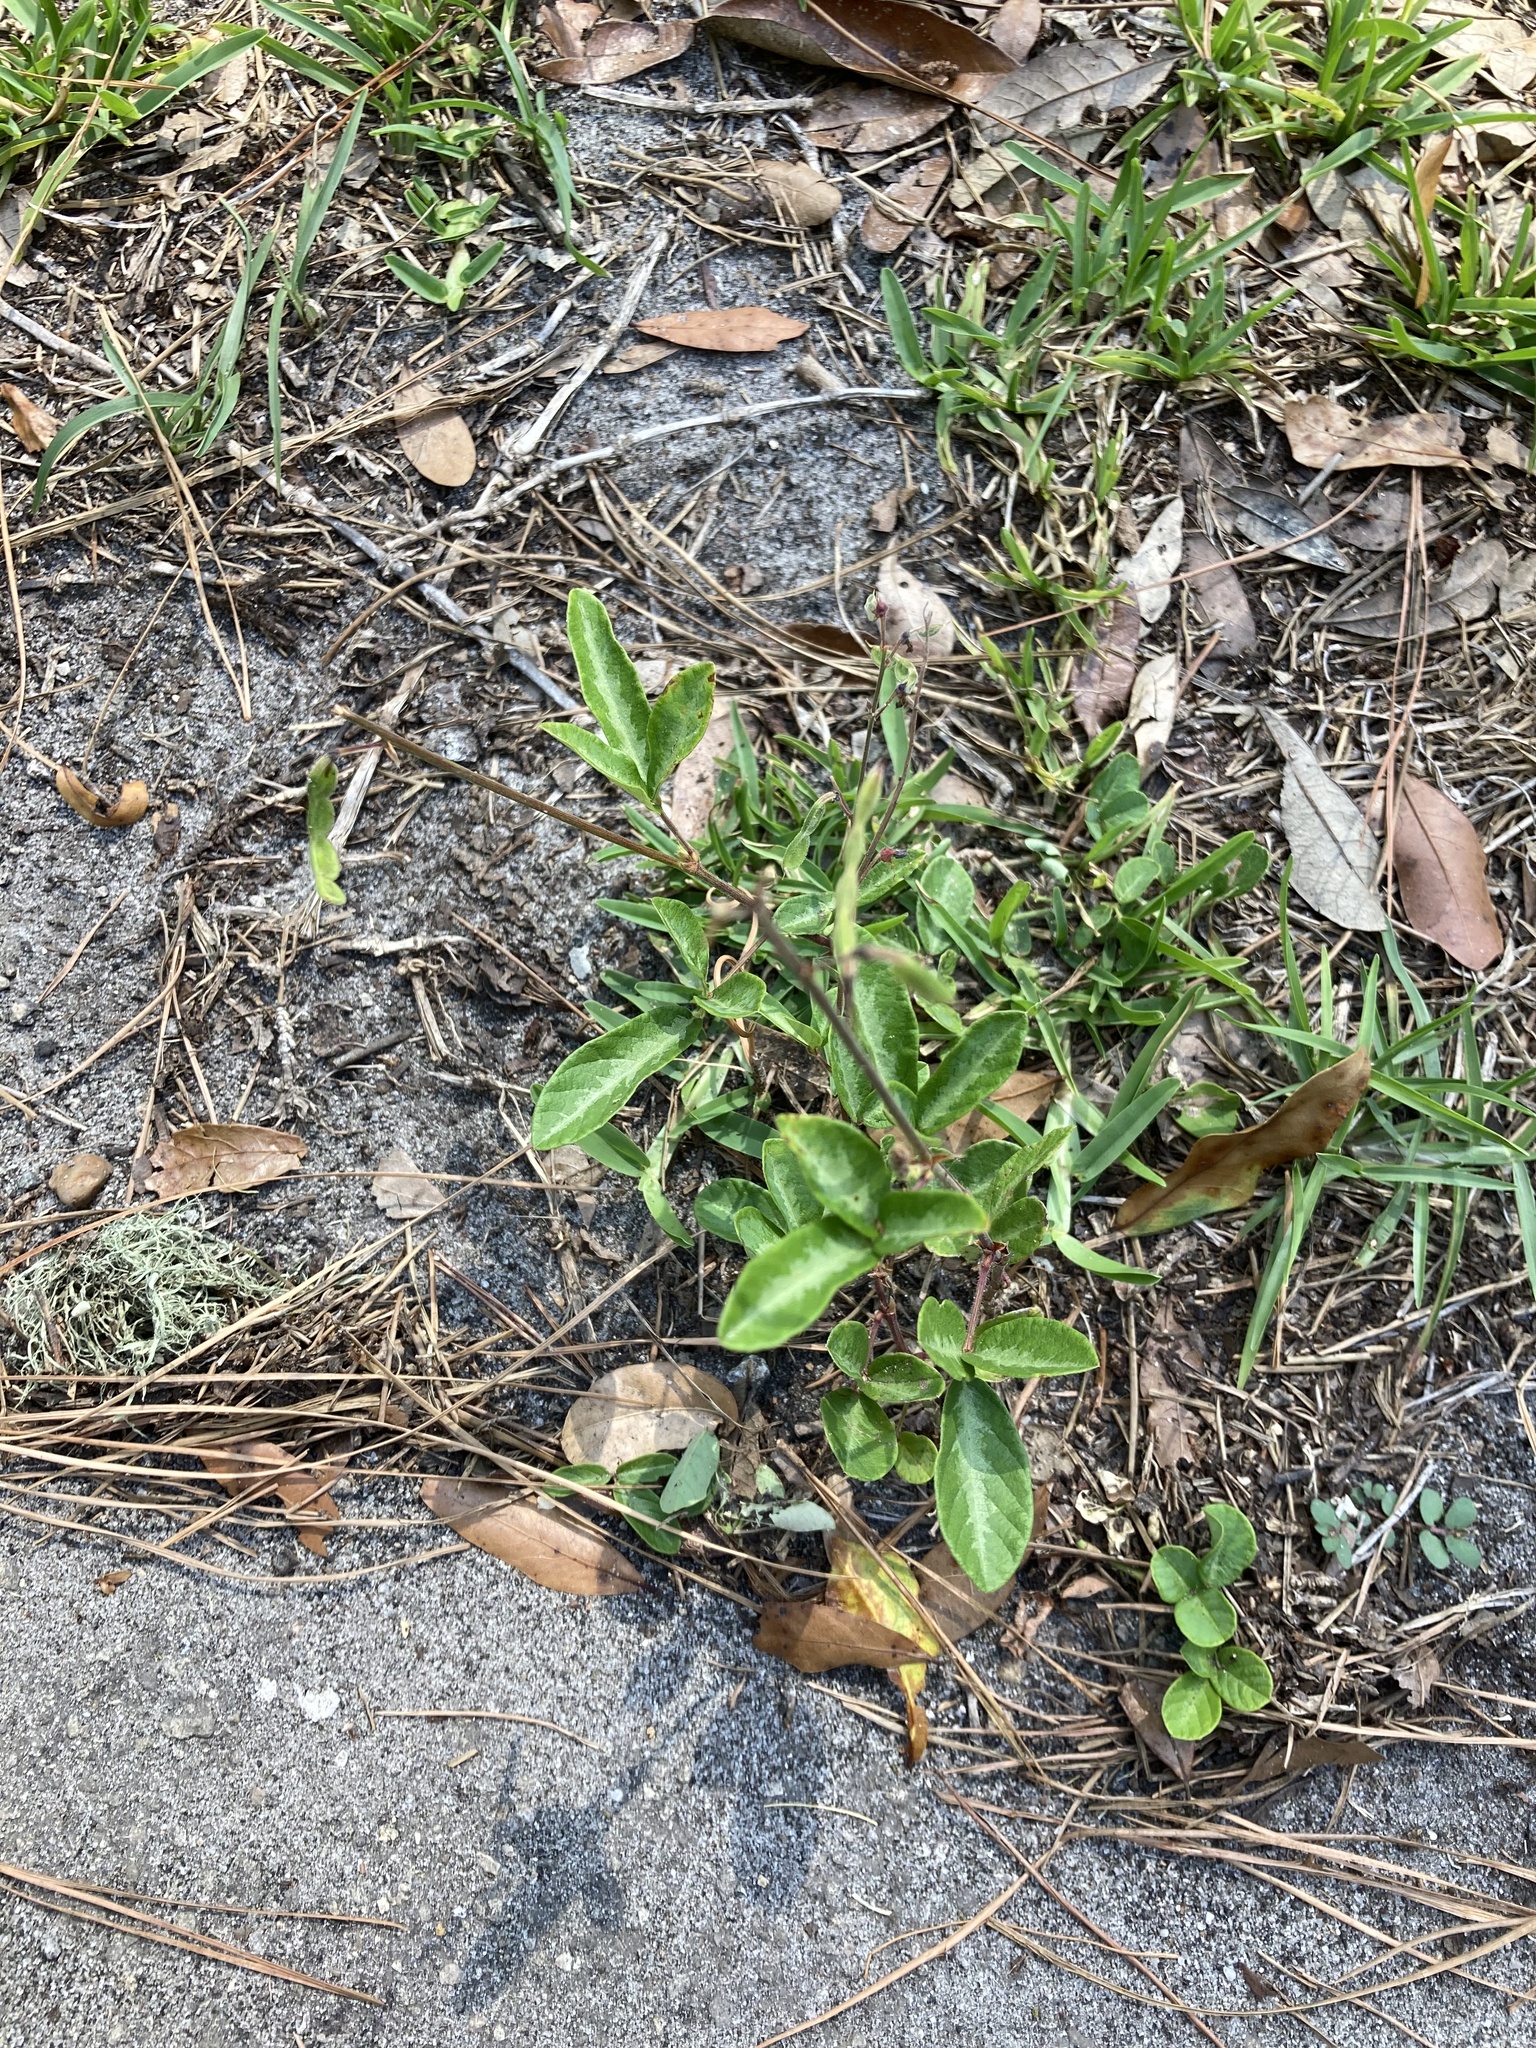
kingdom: Plantae
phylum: Tracheophyta
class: Magnoliopsida
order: Fabales
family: Fabaceae
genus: Desmodium
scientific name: Desmodium incanum
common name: Tickclover
